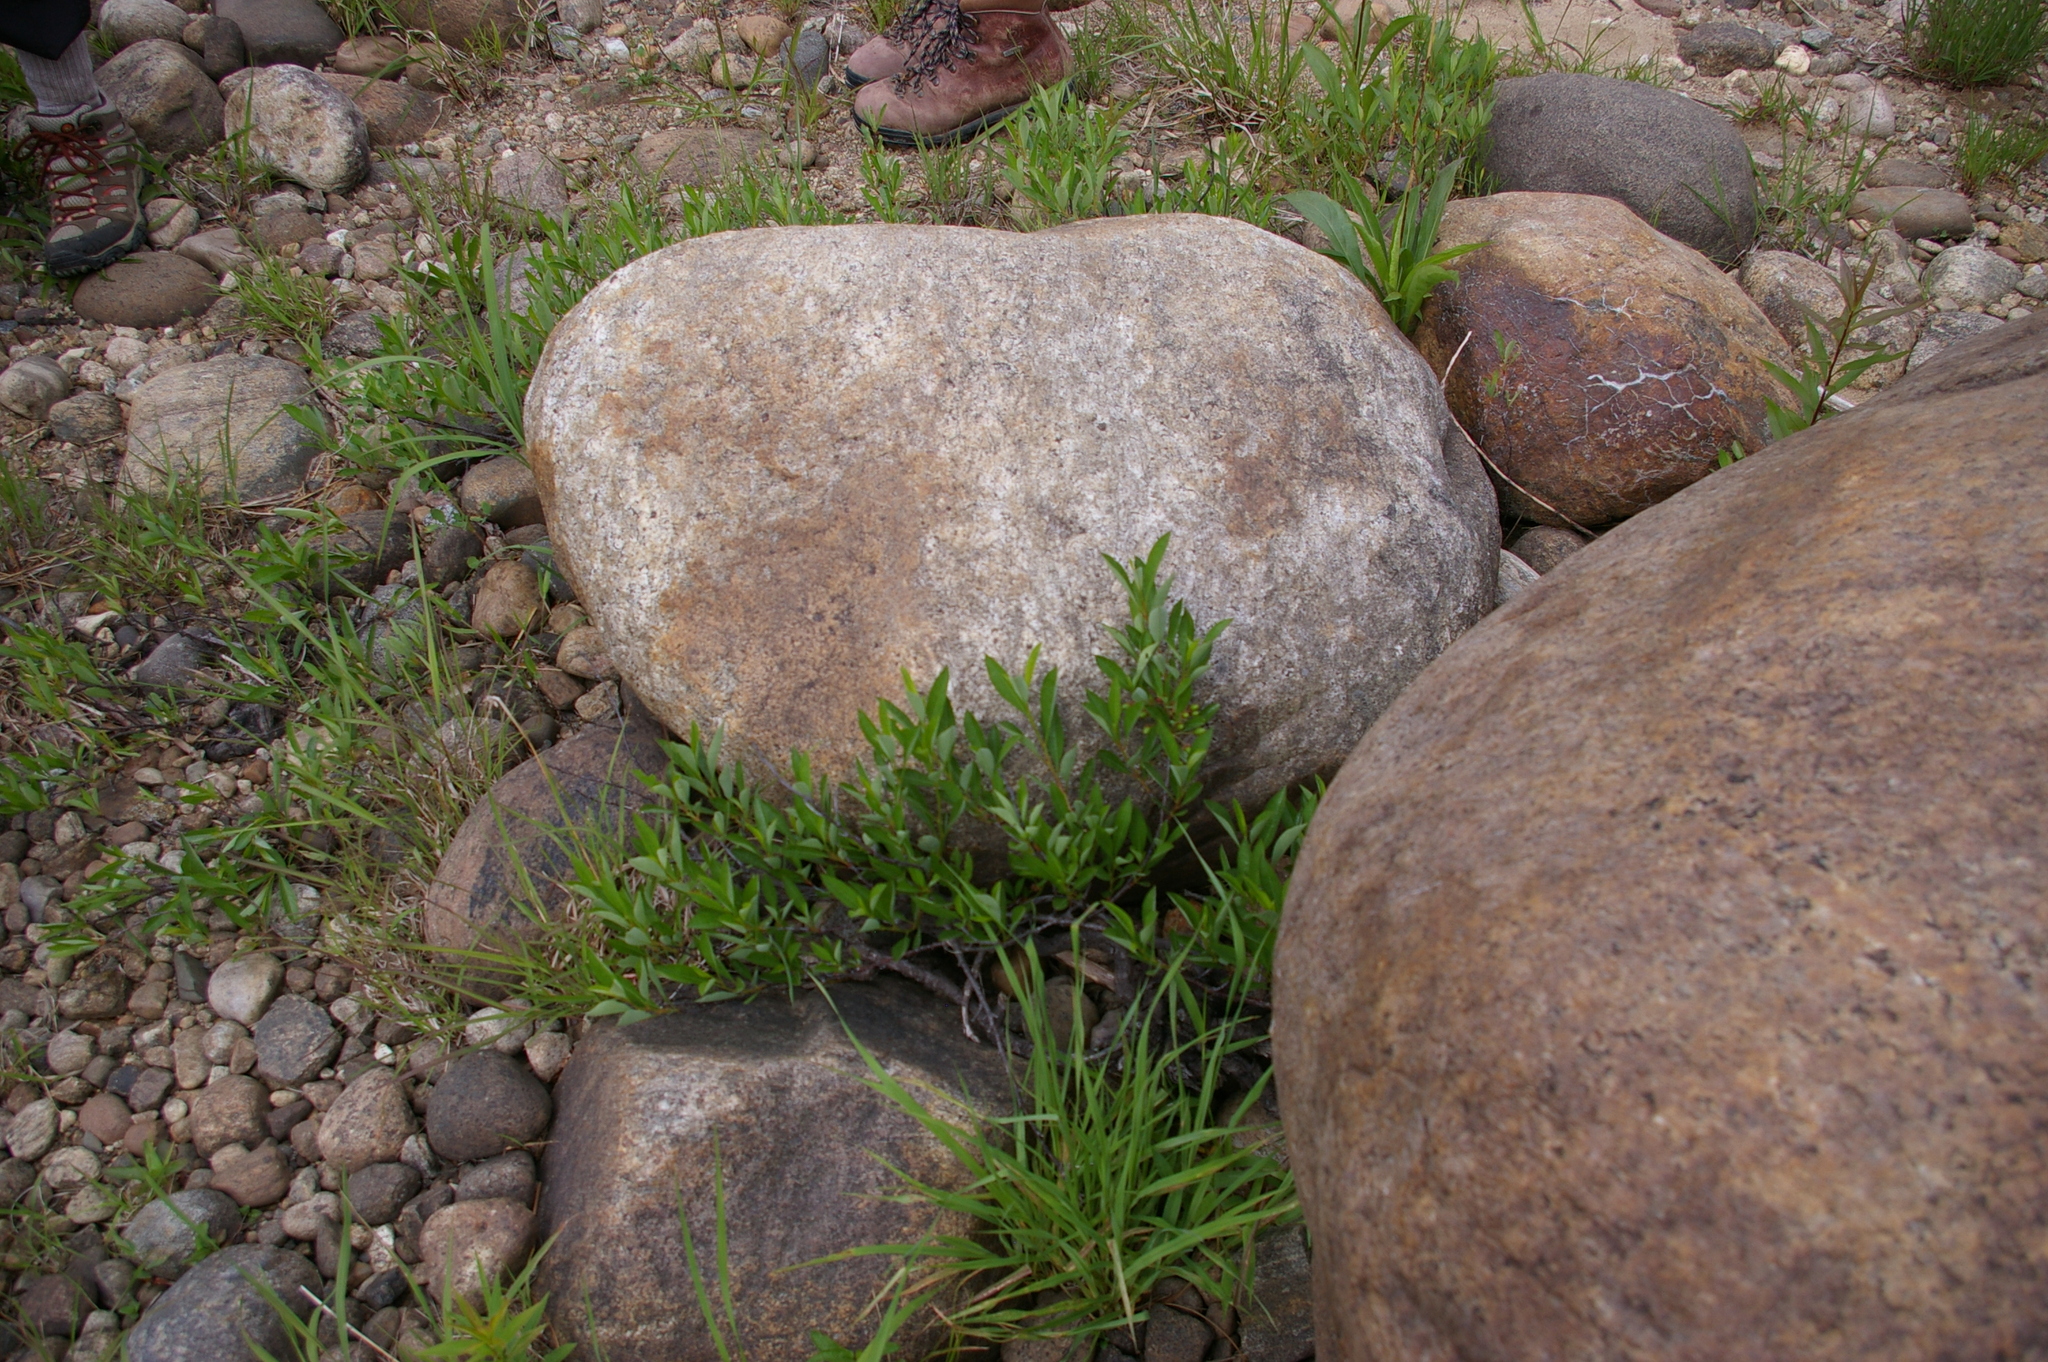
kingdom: Plantae
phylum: Tracheophyta
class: Magnoliopsida
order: Rosales
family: Rosaceae
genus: Prunus
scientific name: Prunus pumila
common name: Dwarf cherry
